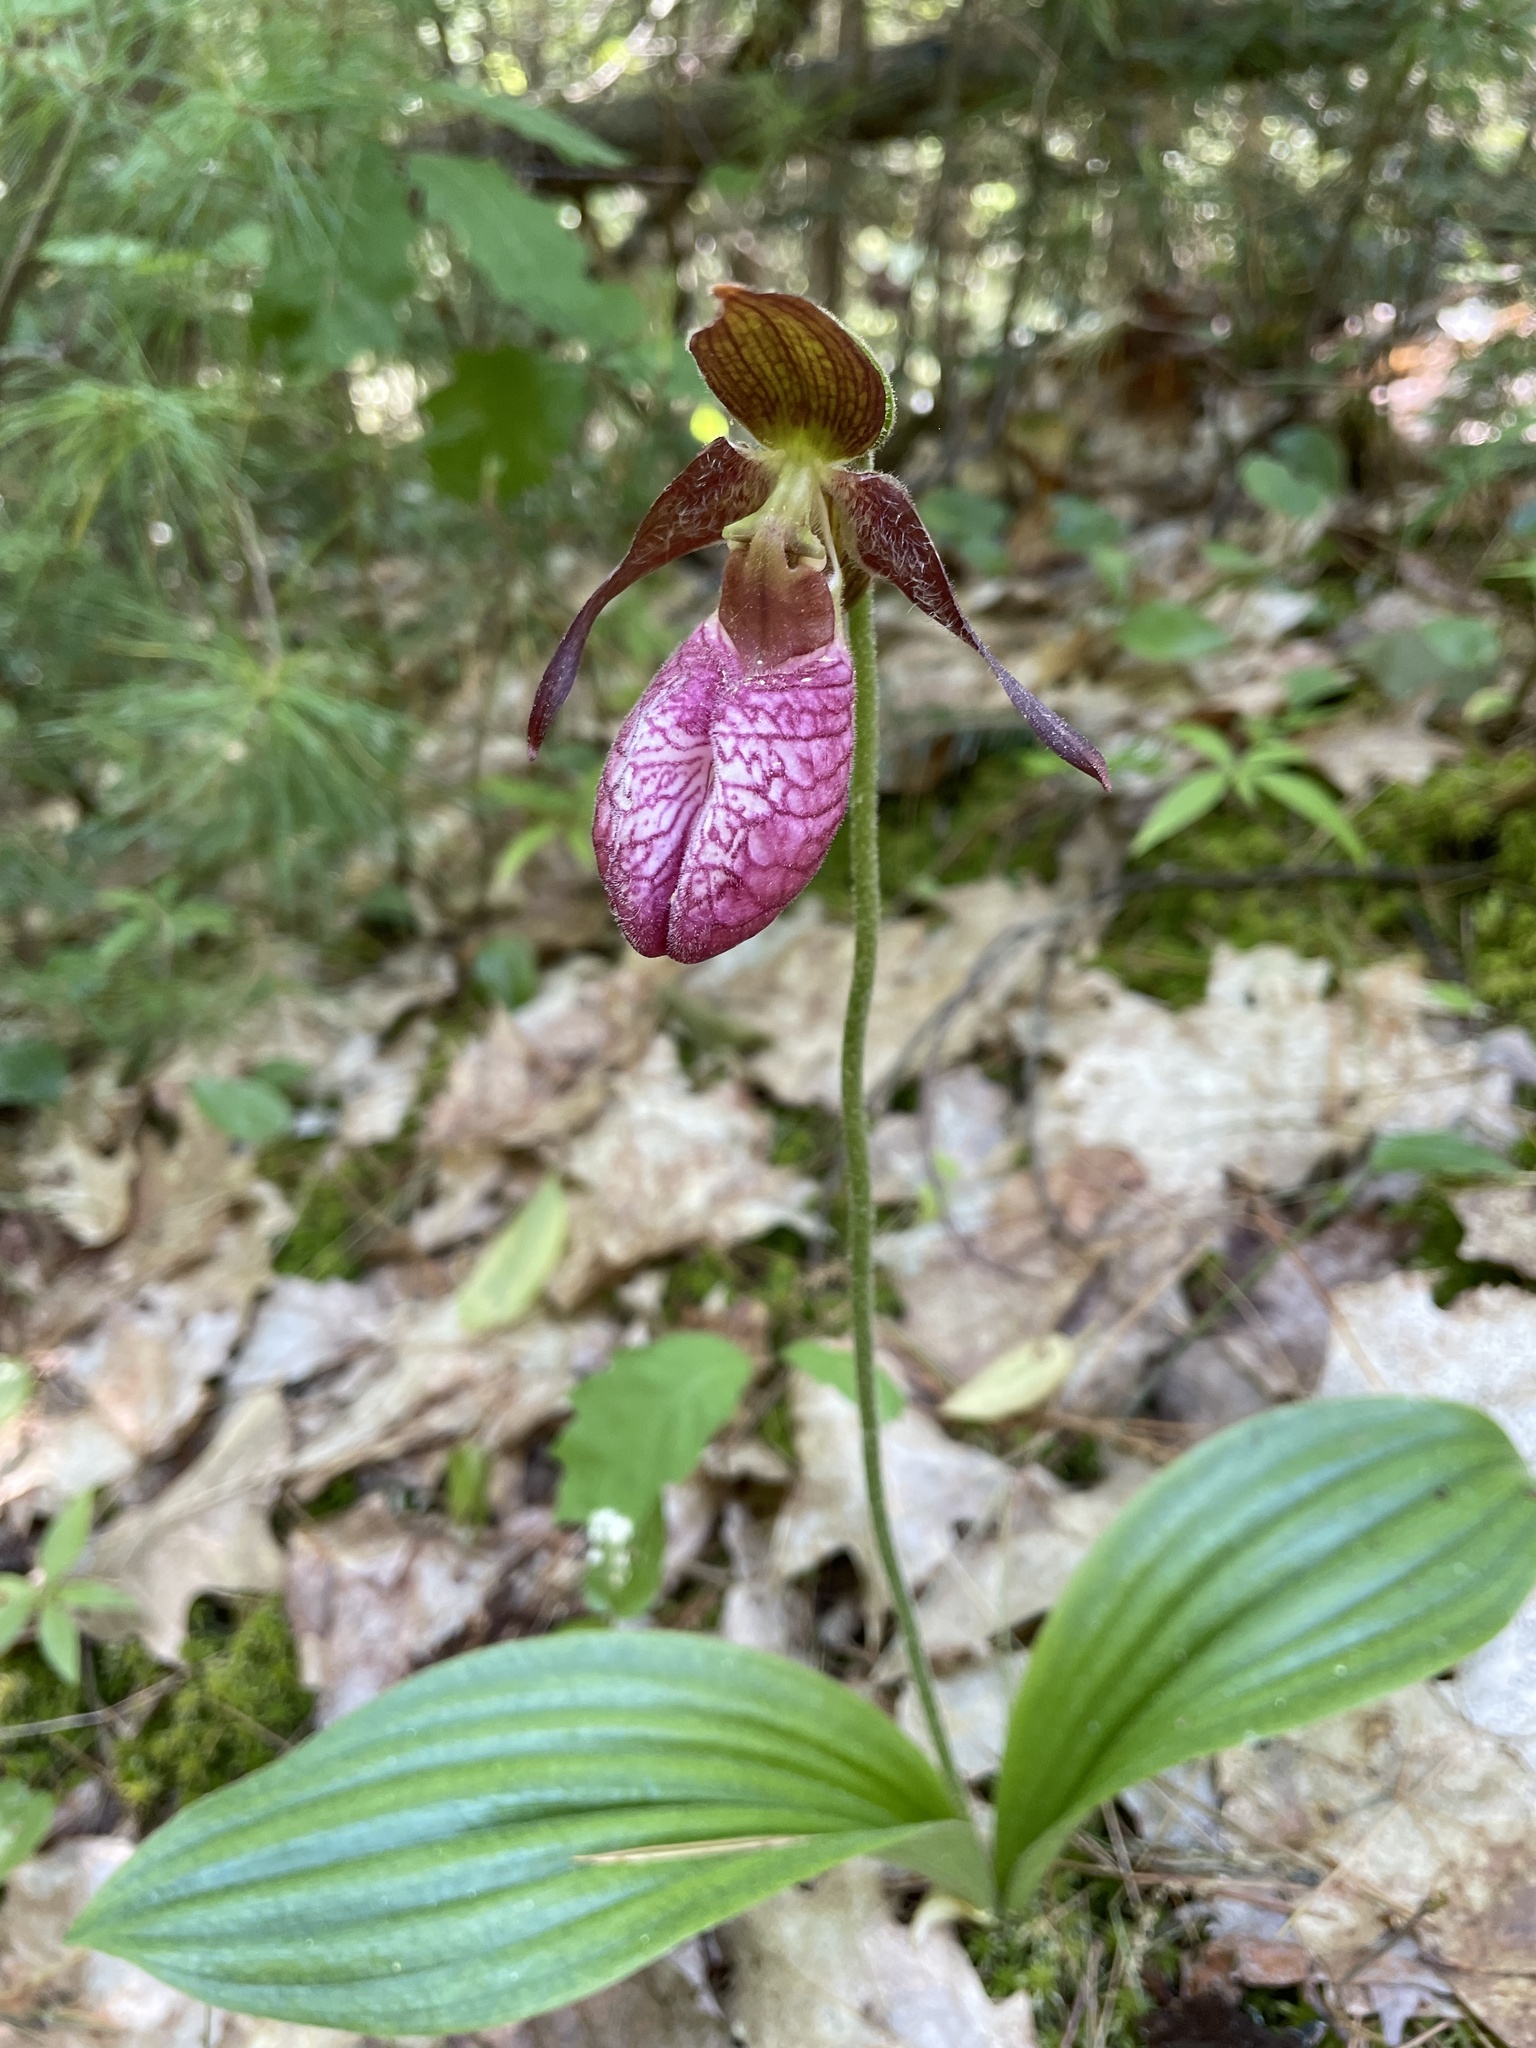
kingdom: Plantae
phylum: Tracheophyta
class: Liliopsida
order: Asparagales
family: Orchidaceae
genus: Cypripedium
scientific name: Cypripedium acaule
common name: Pink lady's-slipper
